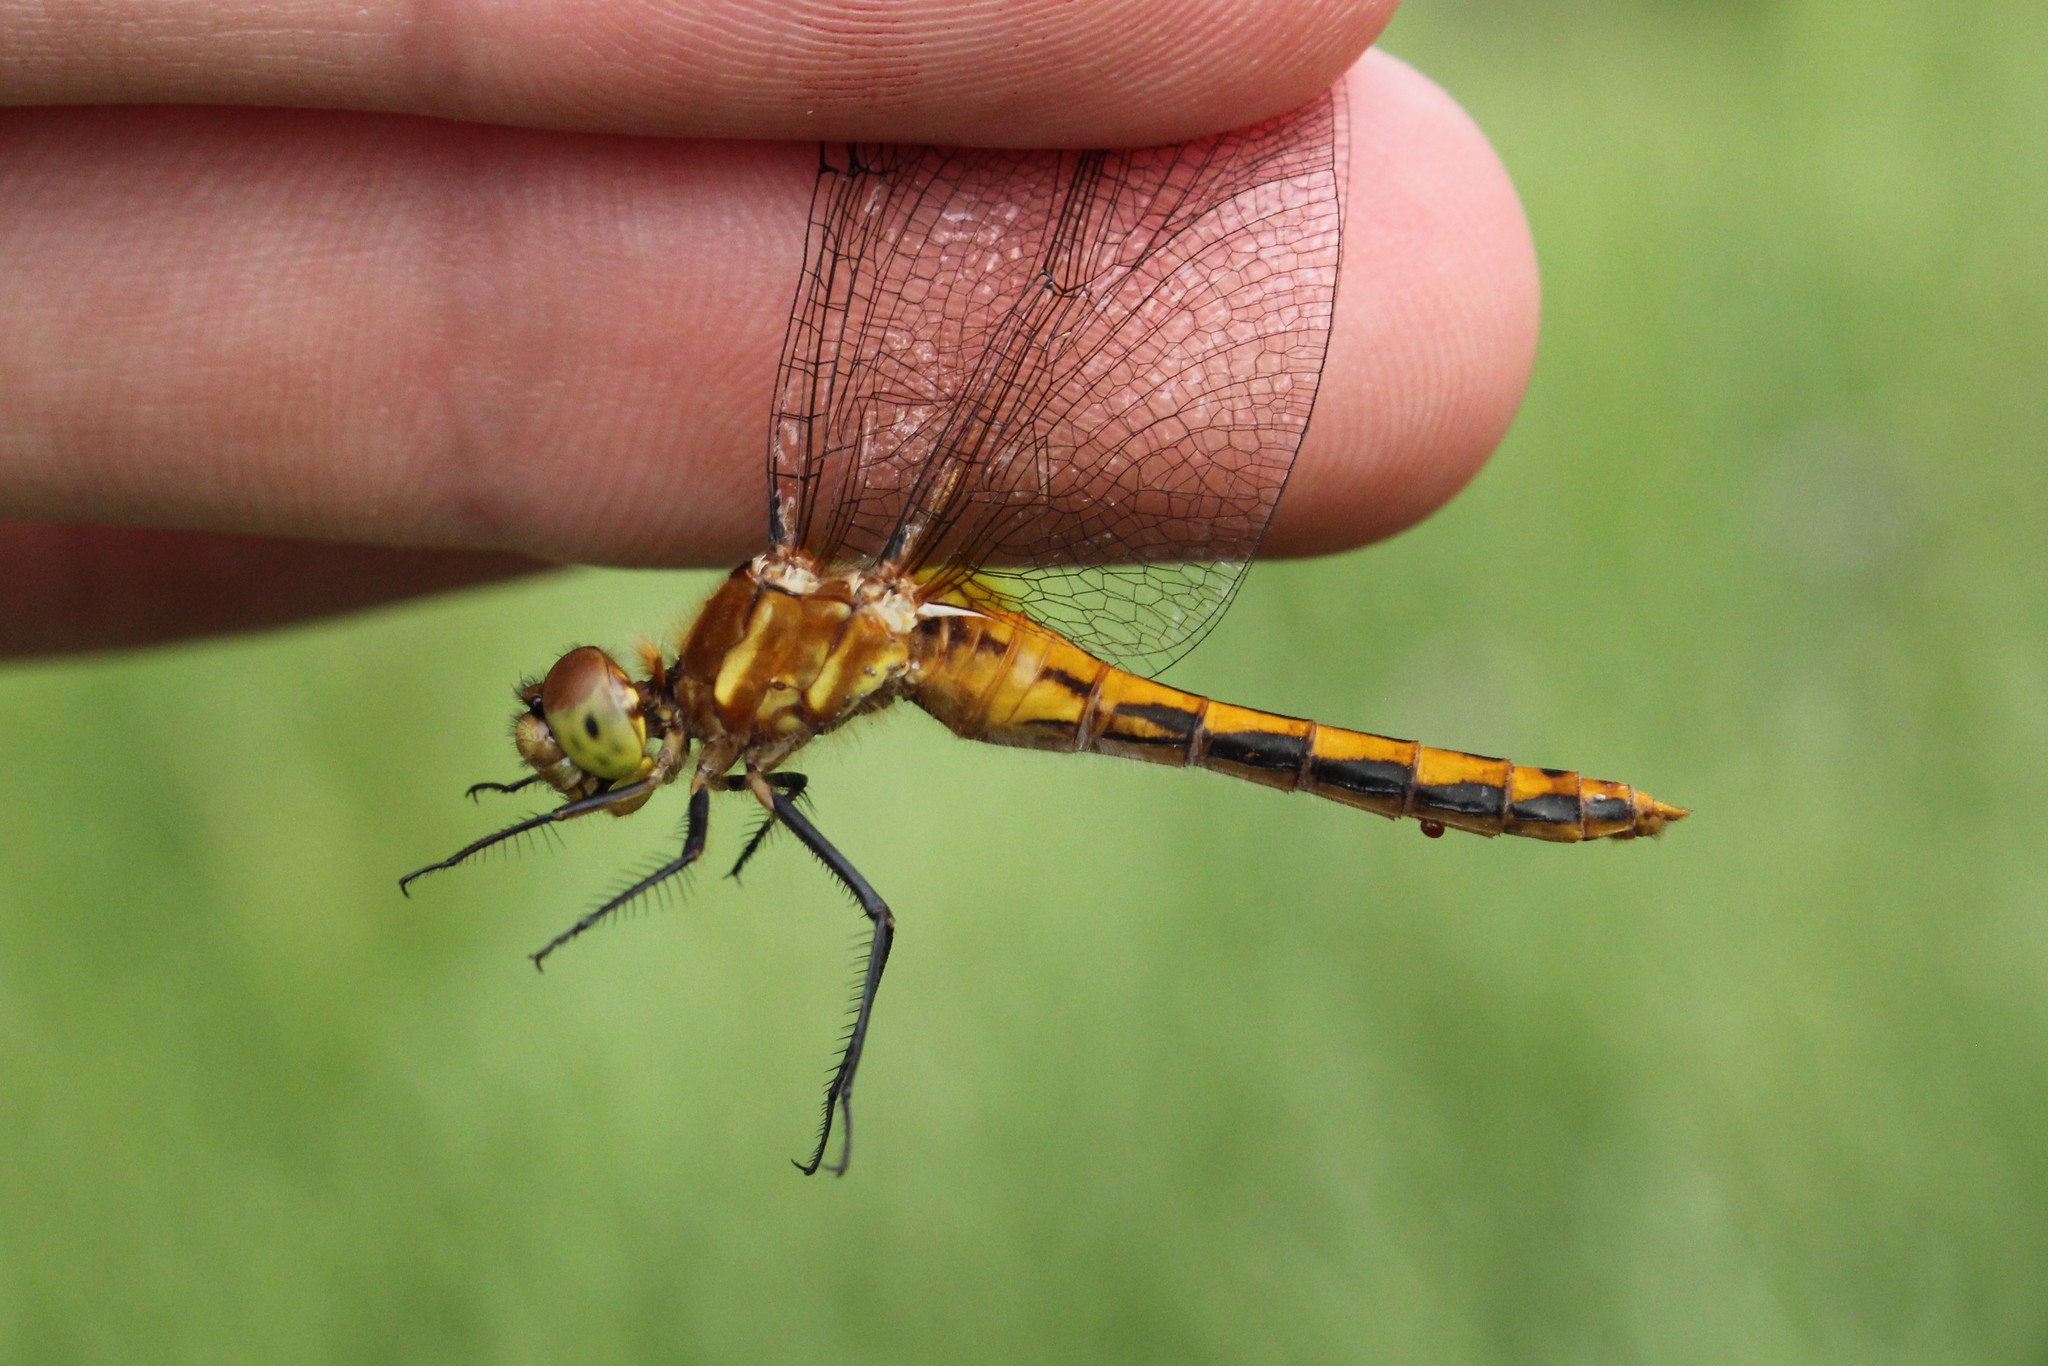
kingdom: Animalia
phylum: Arthropoda
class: Insecta
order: Odonata
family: Libellulidae
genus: Sympetrum
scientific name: Sympetrum internum
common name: Cherry-faced meadowhawk
